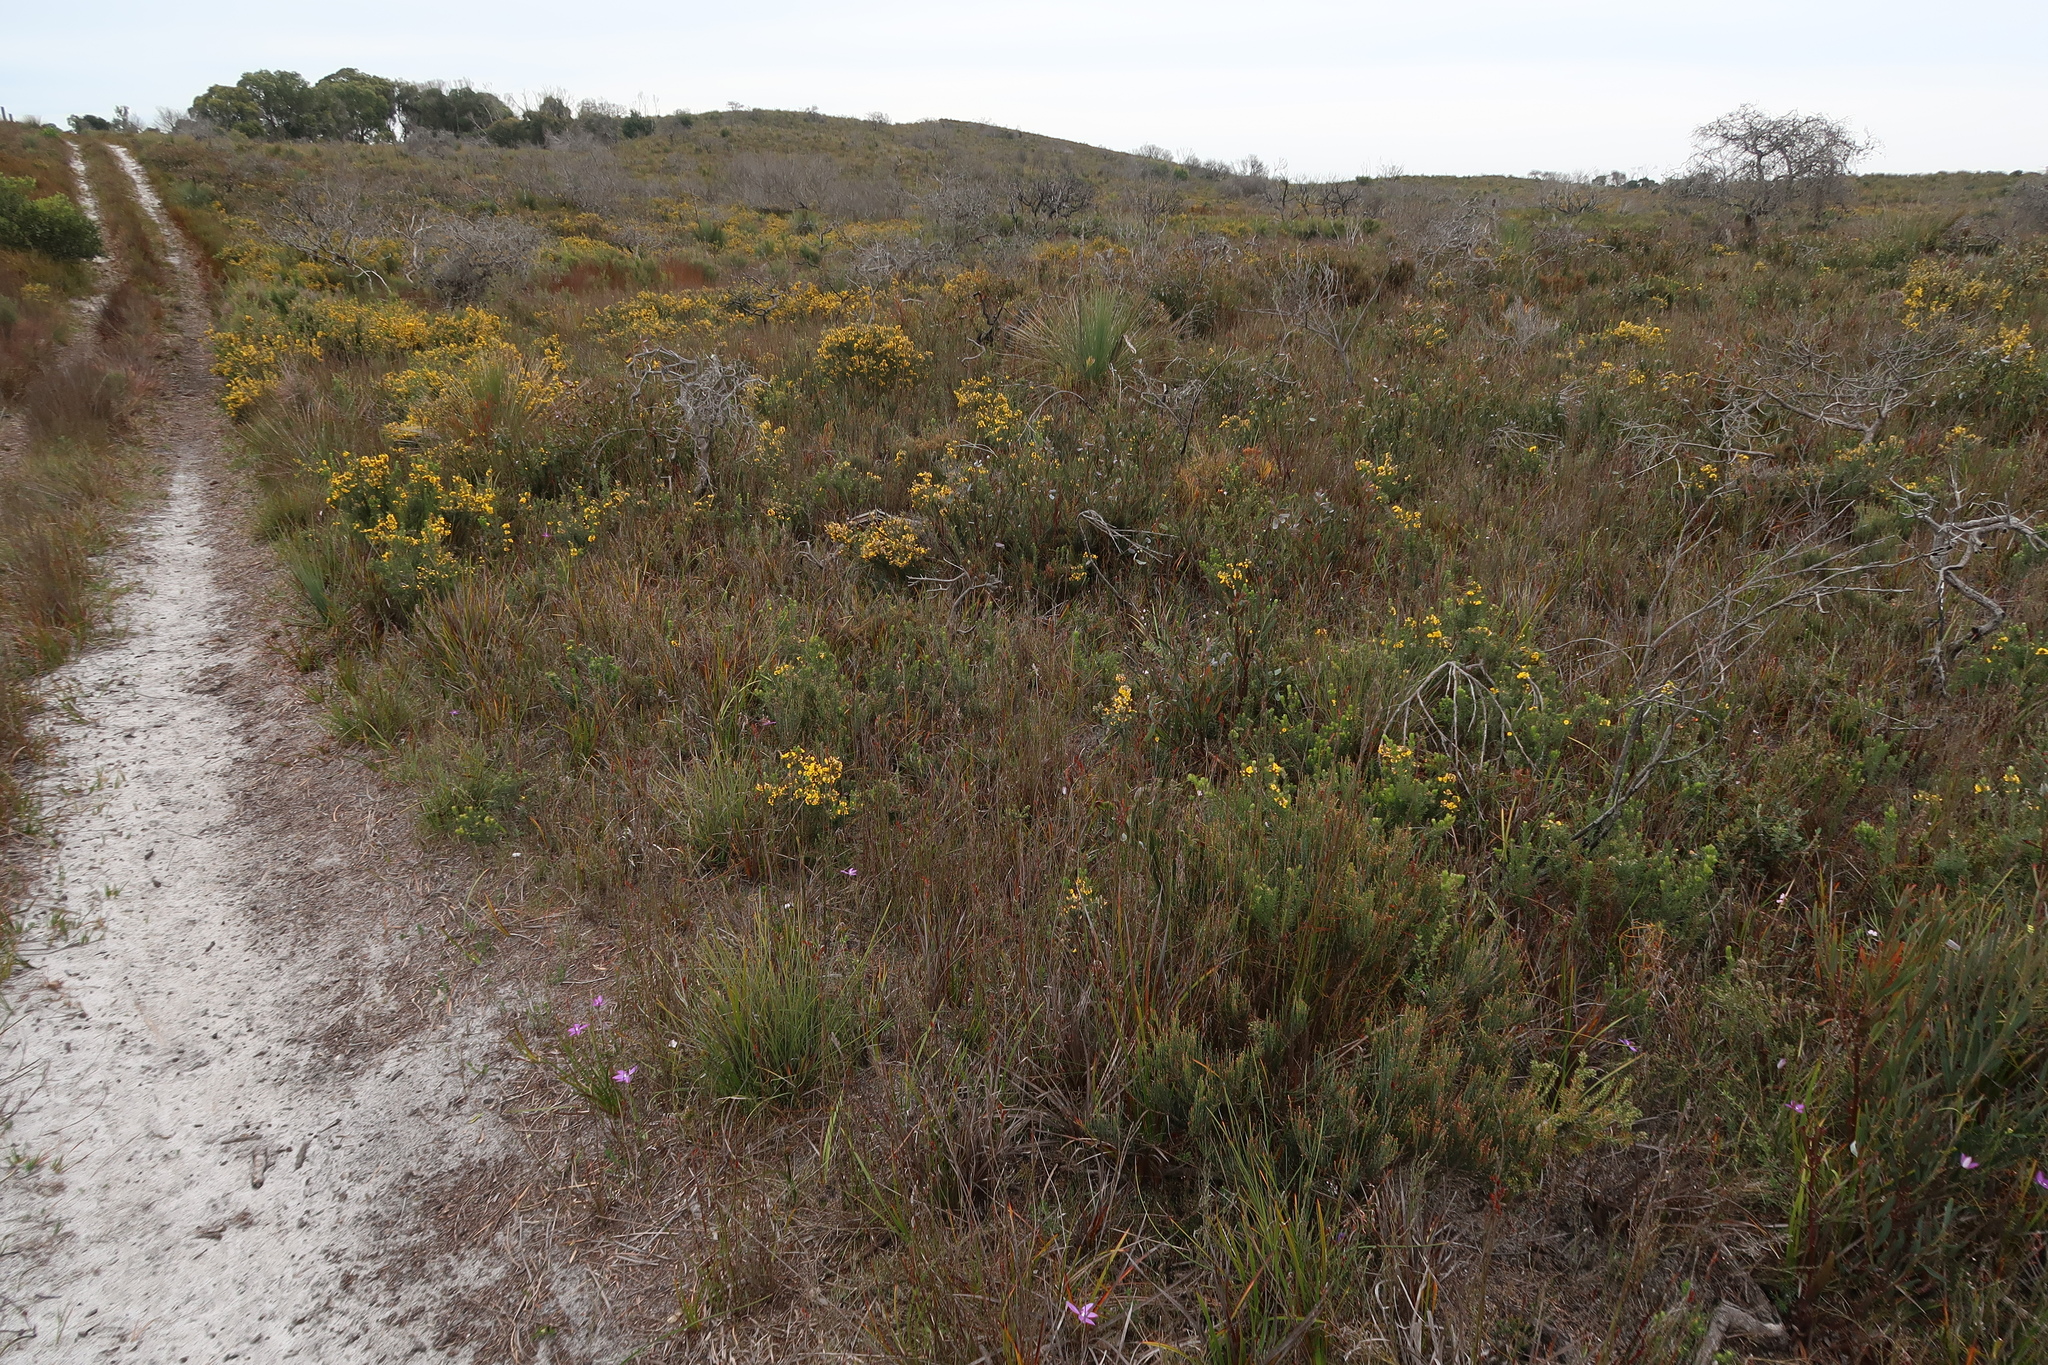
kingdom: Plantae
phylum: Tracheophyta
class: Liliopsida
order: Asparagales
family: Orchidaceae
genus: Caladenia
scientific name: Caladenia major
